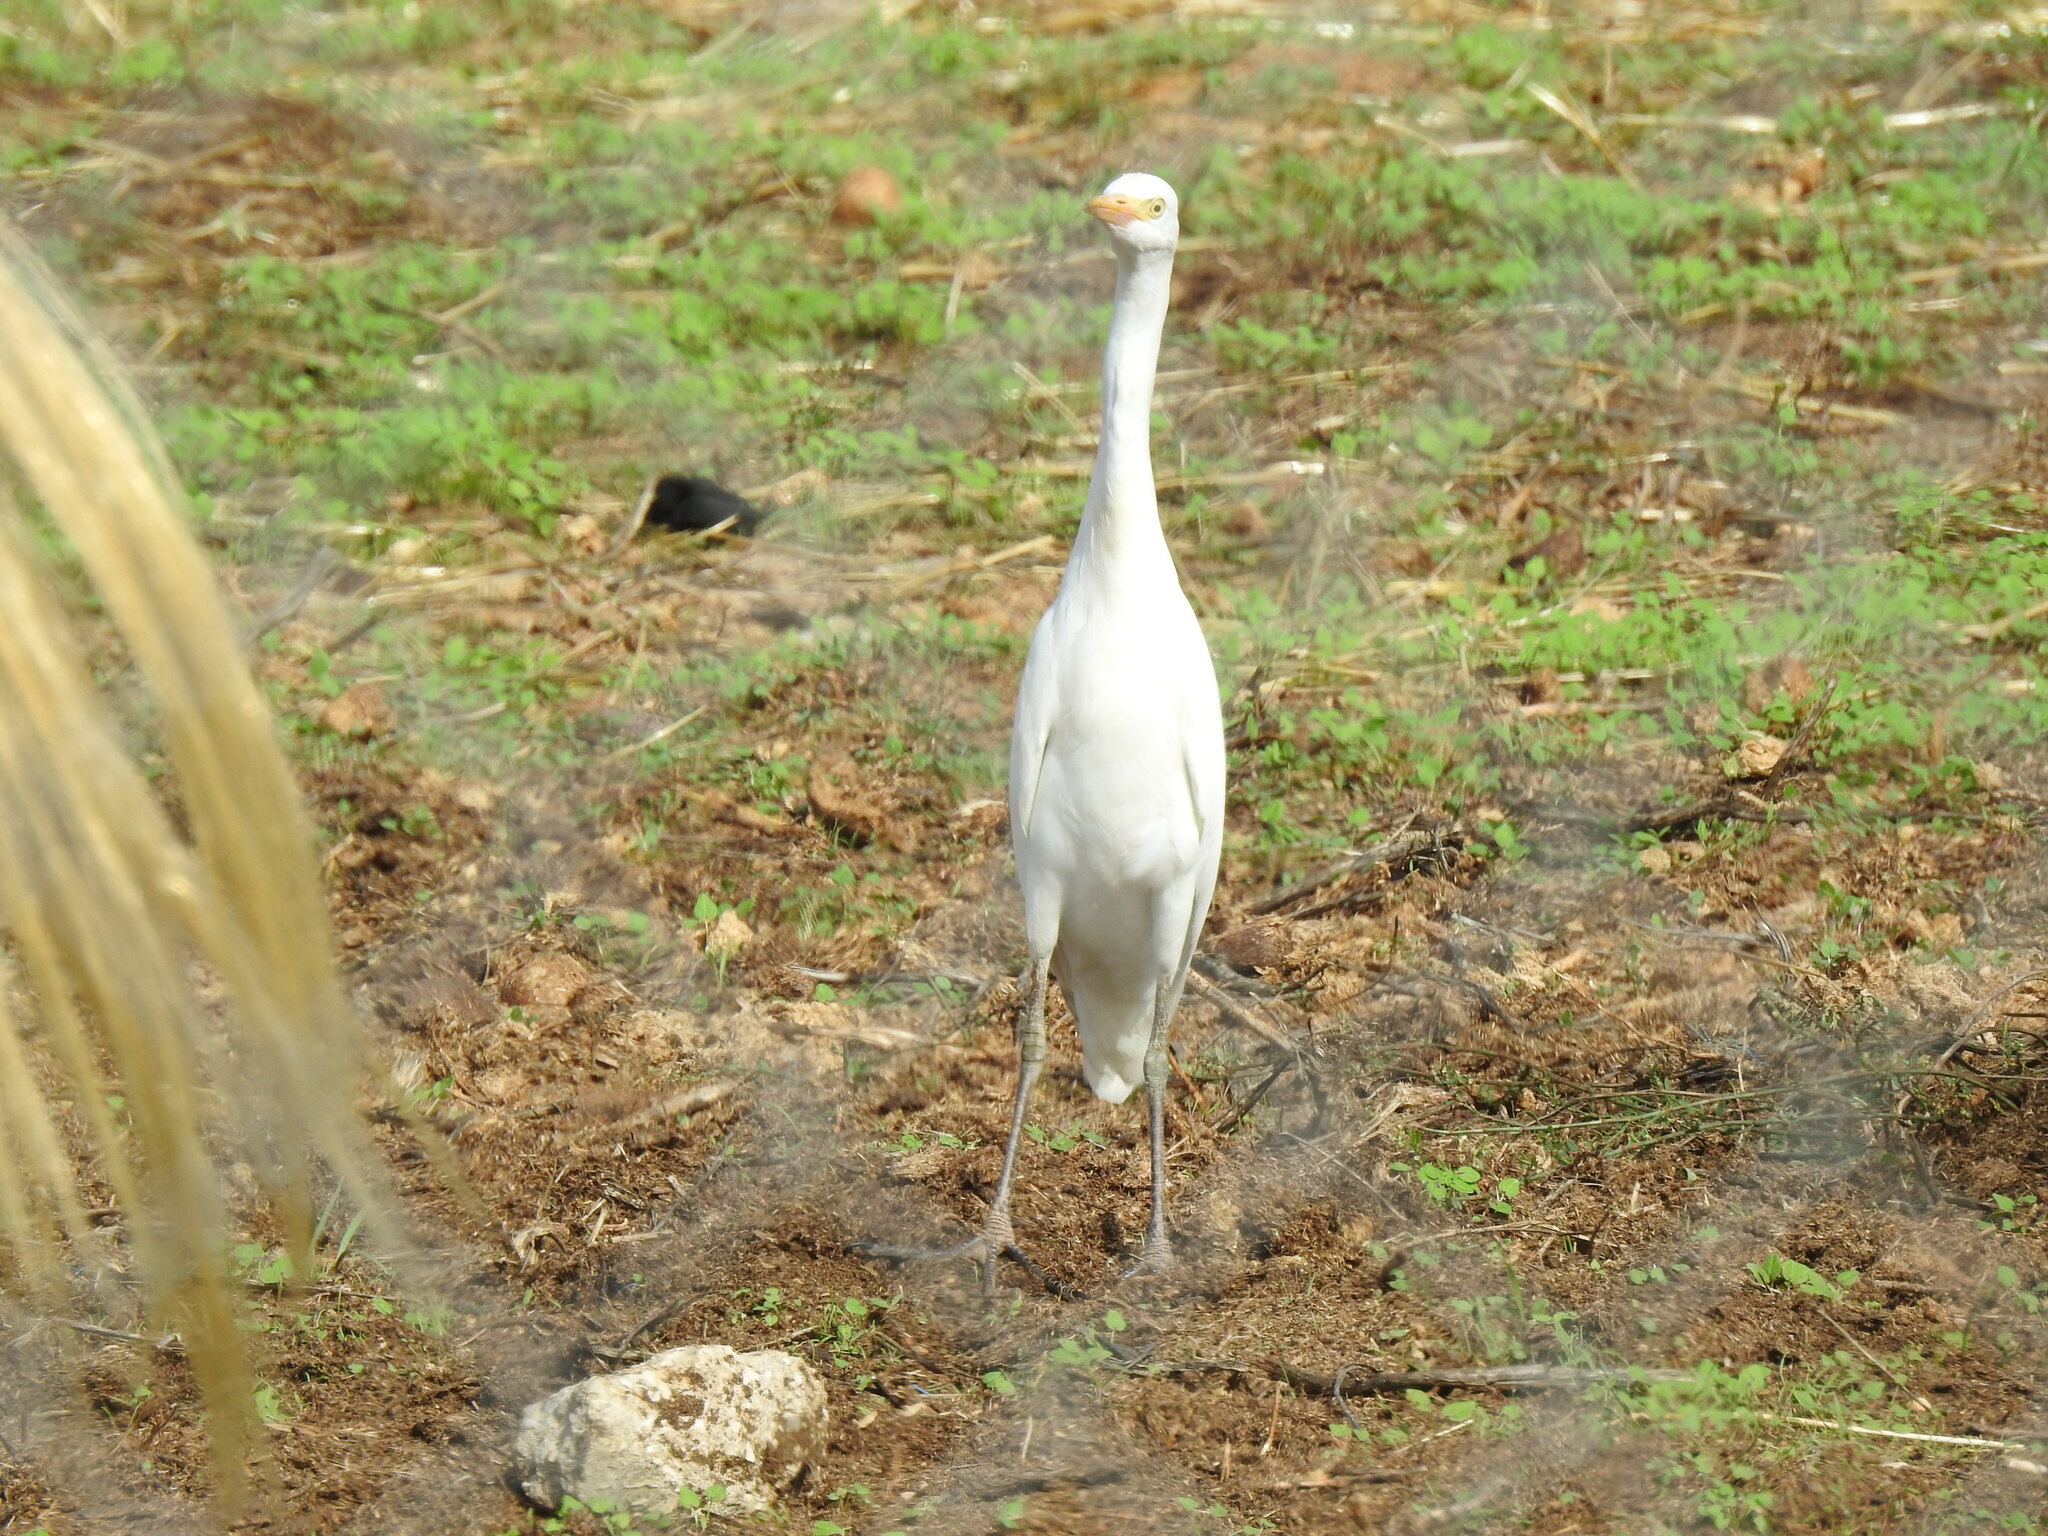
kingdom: Animalia
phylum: Chordata
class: Aves
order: Pelecaniformes
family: Ardeidae
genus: Bubulcus
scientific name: Bubulcus ibis
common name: Cattle egret
